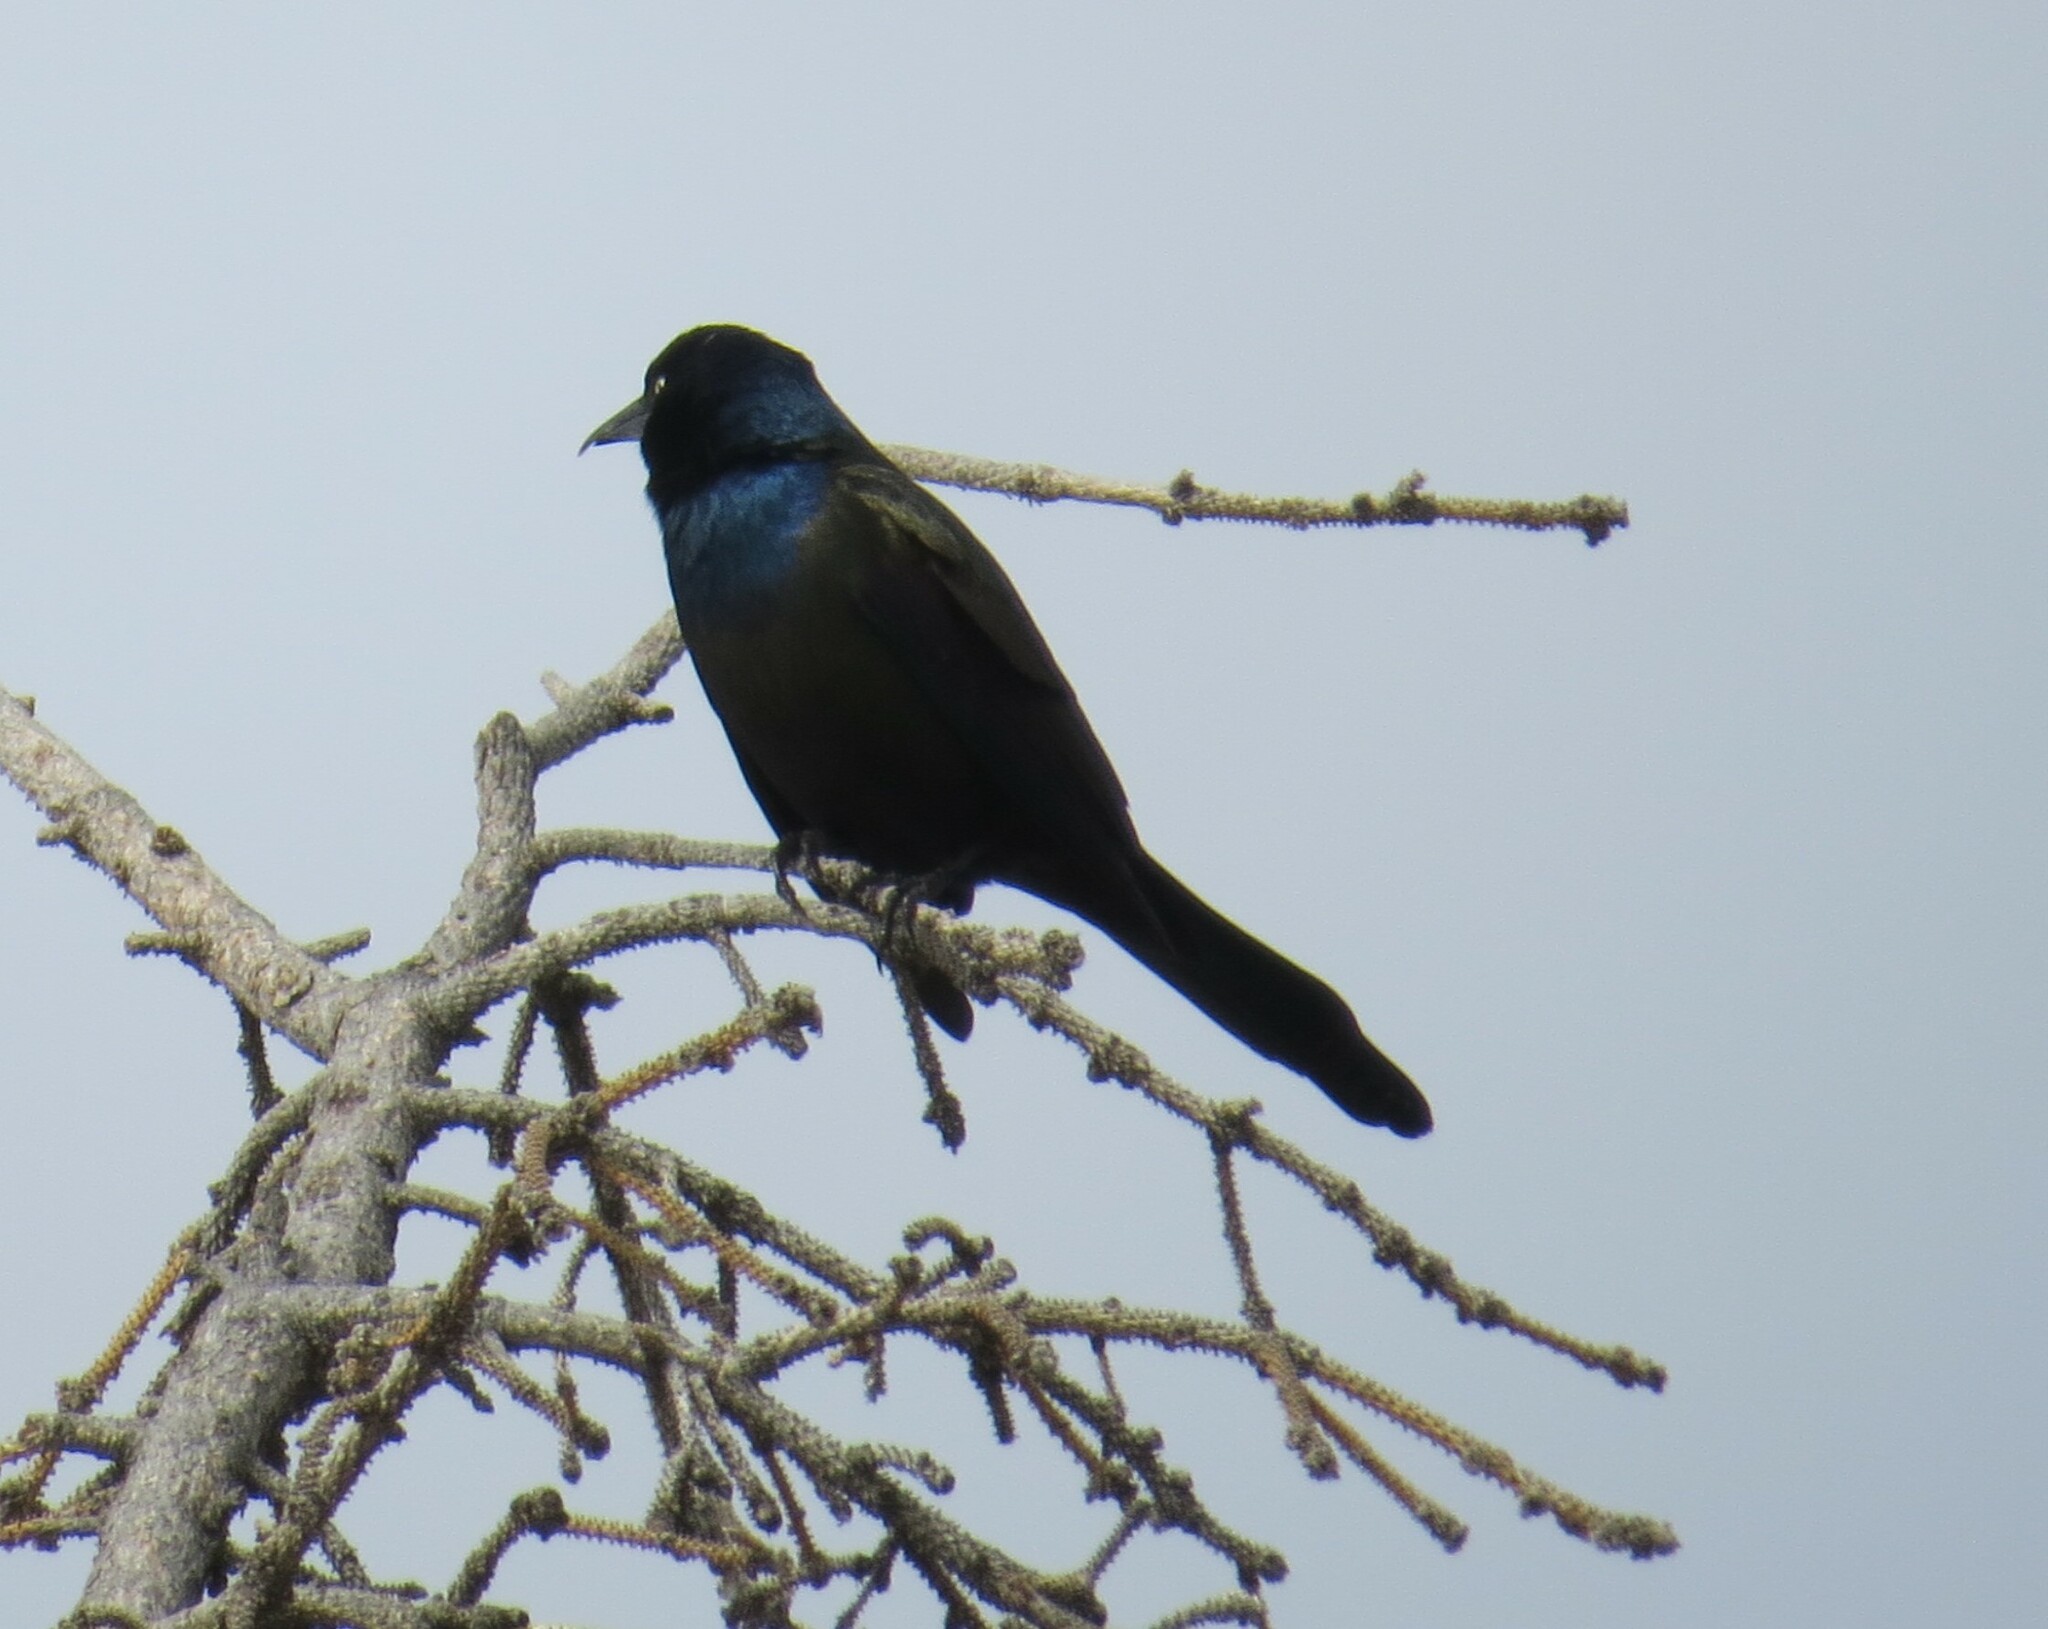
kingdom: Animalia
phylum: Chordata
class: Aves
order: Passeriformes
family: Icteridae
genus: Quiscalus
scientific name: Quiscalus quiscula
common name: Common grackle
